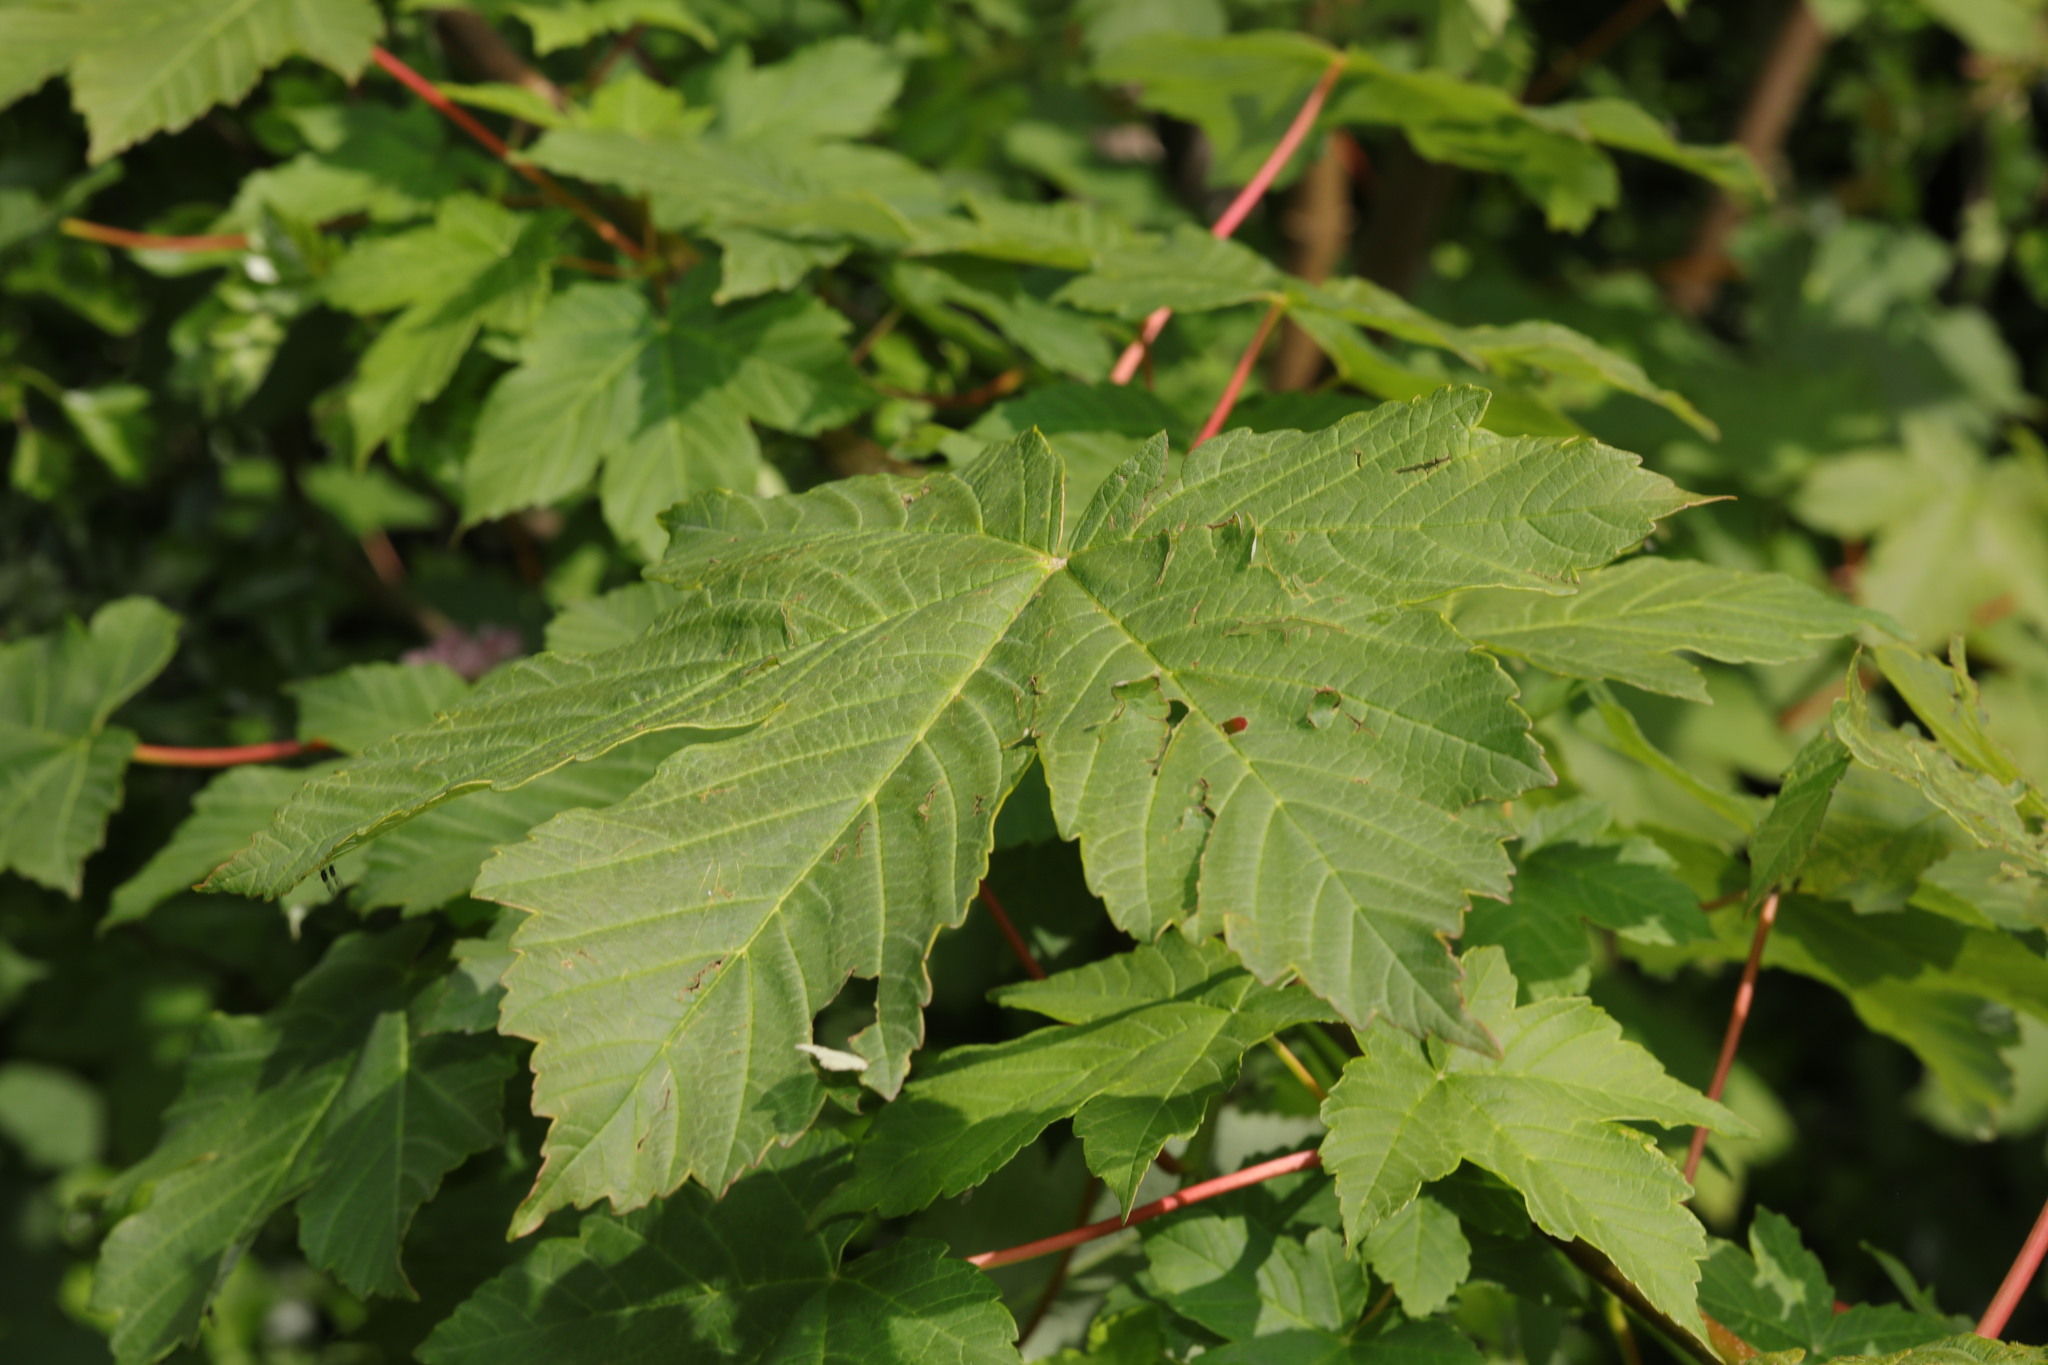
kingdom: Plantae
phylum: Tracheophyta
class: Magnoliopsida
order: Sapindales
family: Sapindaceae
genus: Acer
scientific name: Acer pseudoplatanus
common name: Sycamore
